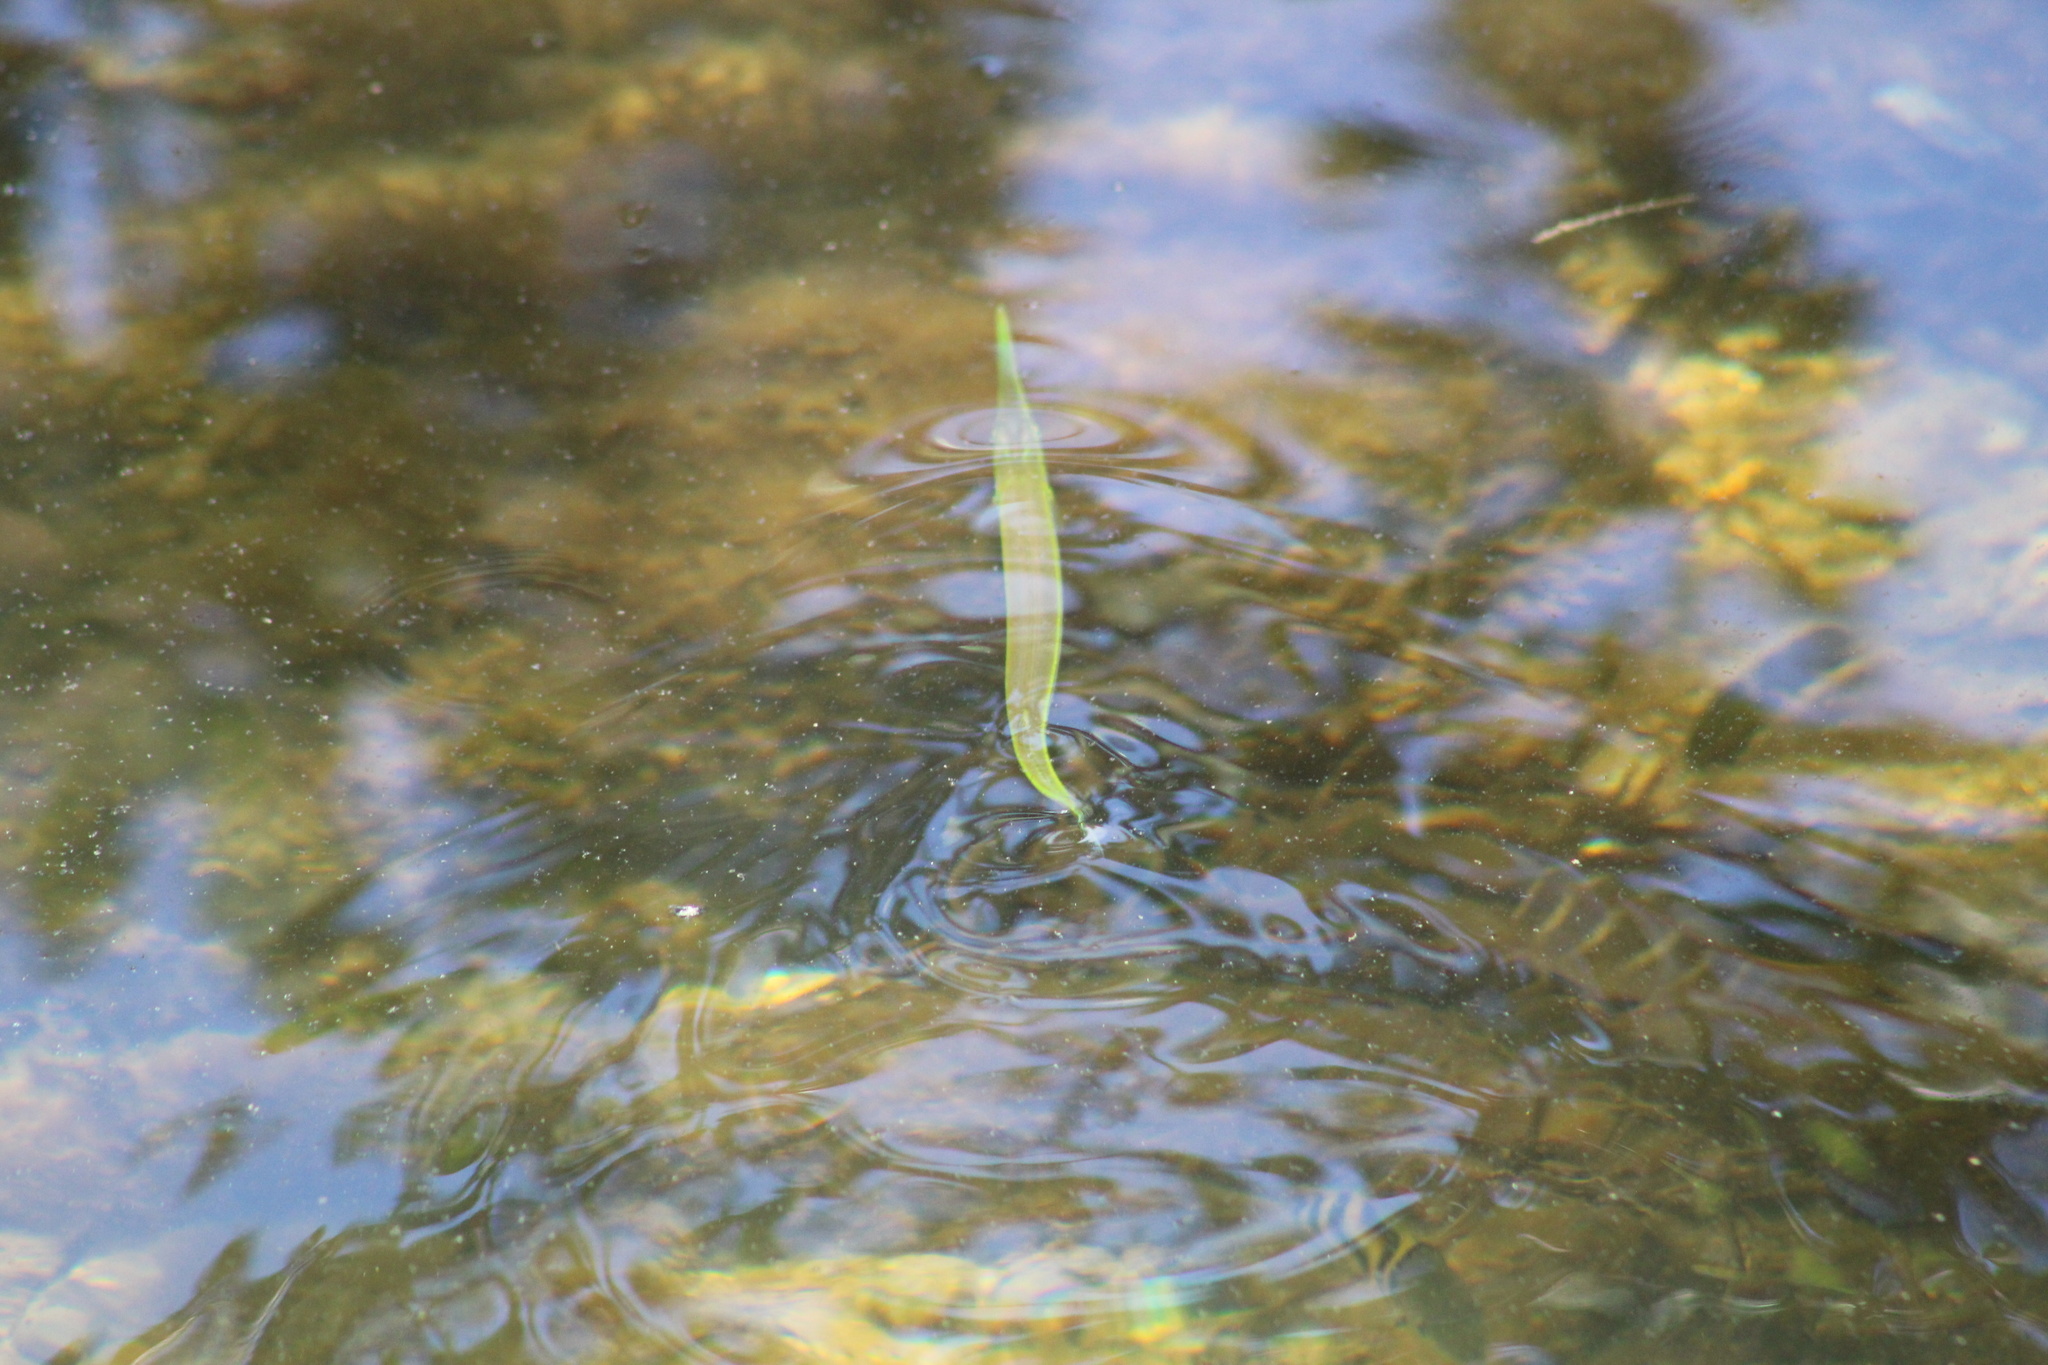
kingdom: Animalia
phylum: Chordata
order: Beloniformes
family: Belonidae
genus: Strongylura
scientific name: Strongylura marina
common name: Atlantic needlefish
